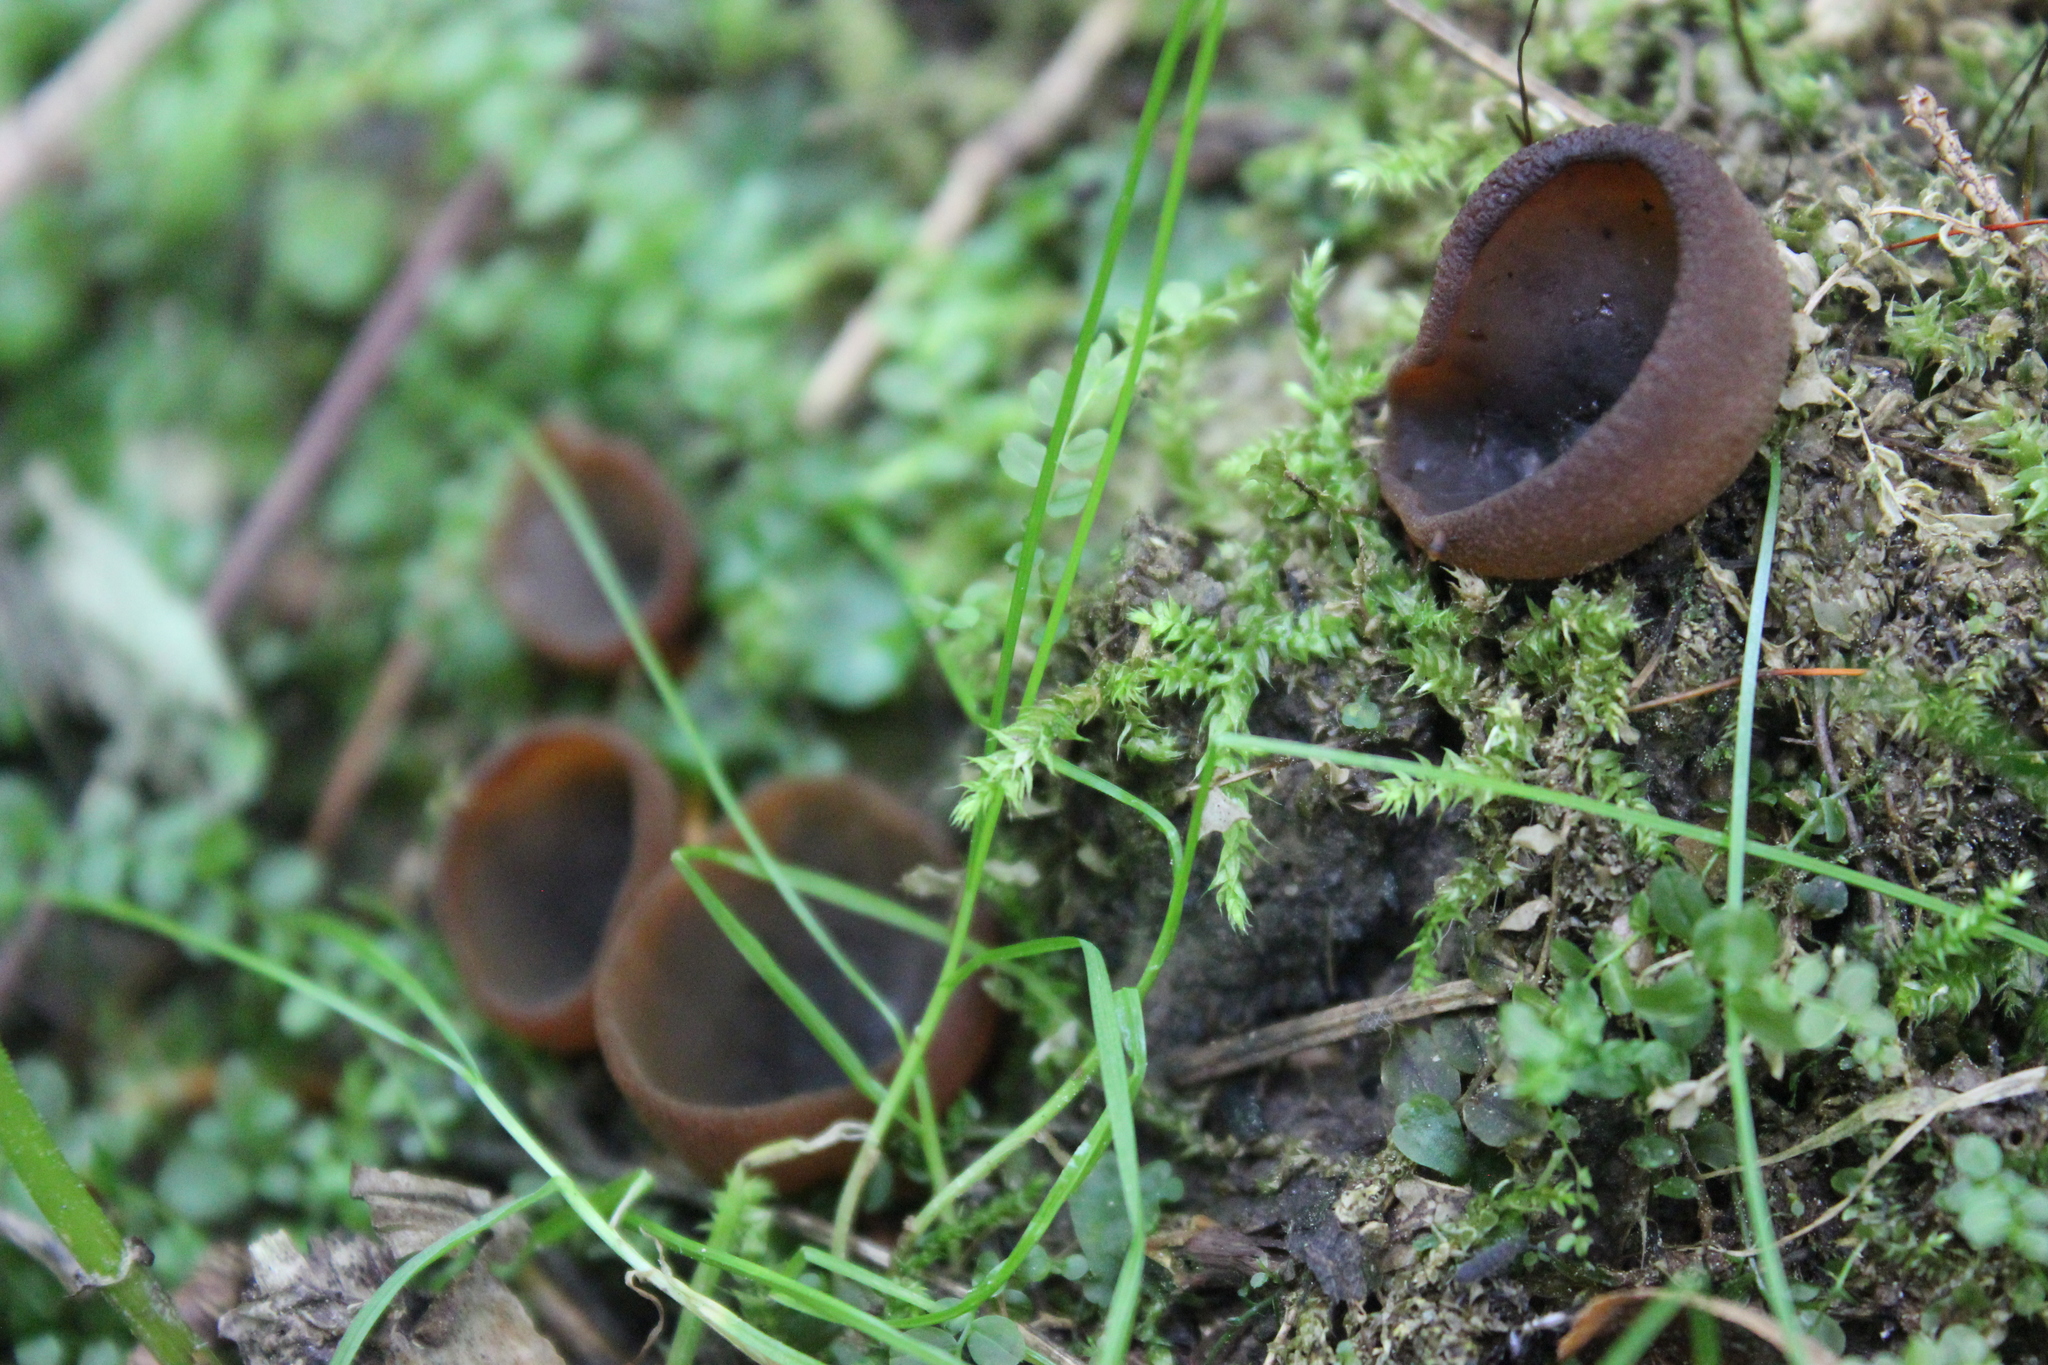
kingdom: Fungi
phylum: Ascomycota
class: Pezizomycetes
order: Pezizales
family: Pezizaceae
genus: Phylloscypha
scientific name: Phylloscypha phyllogena
